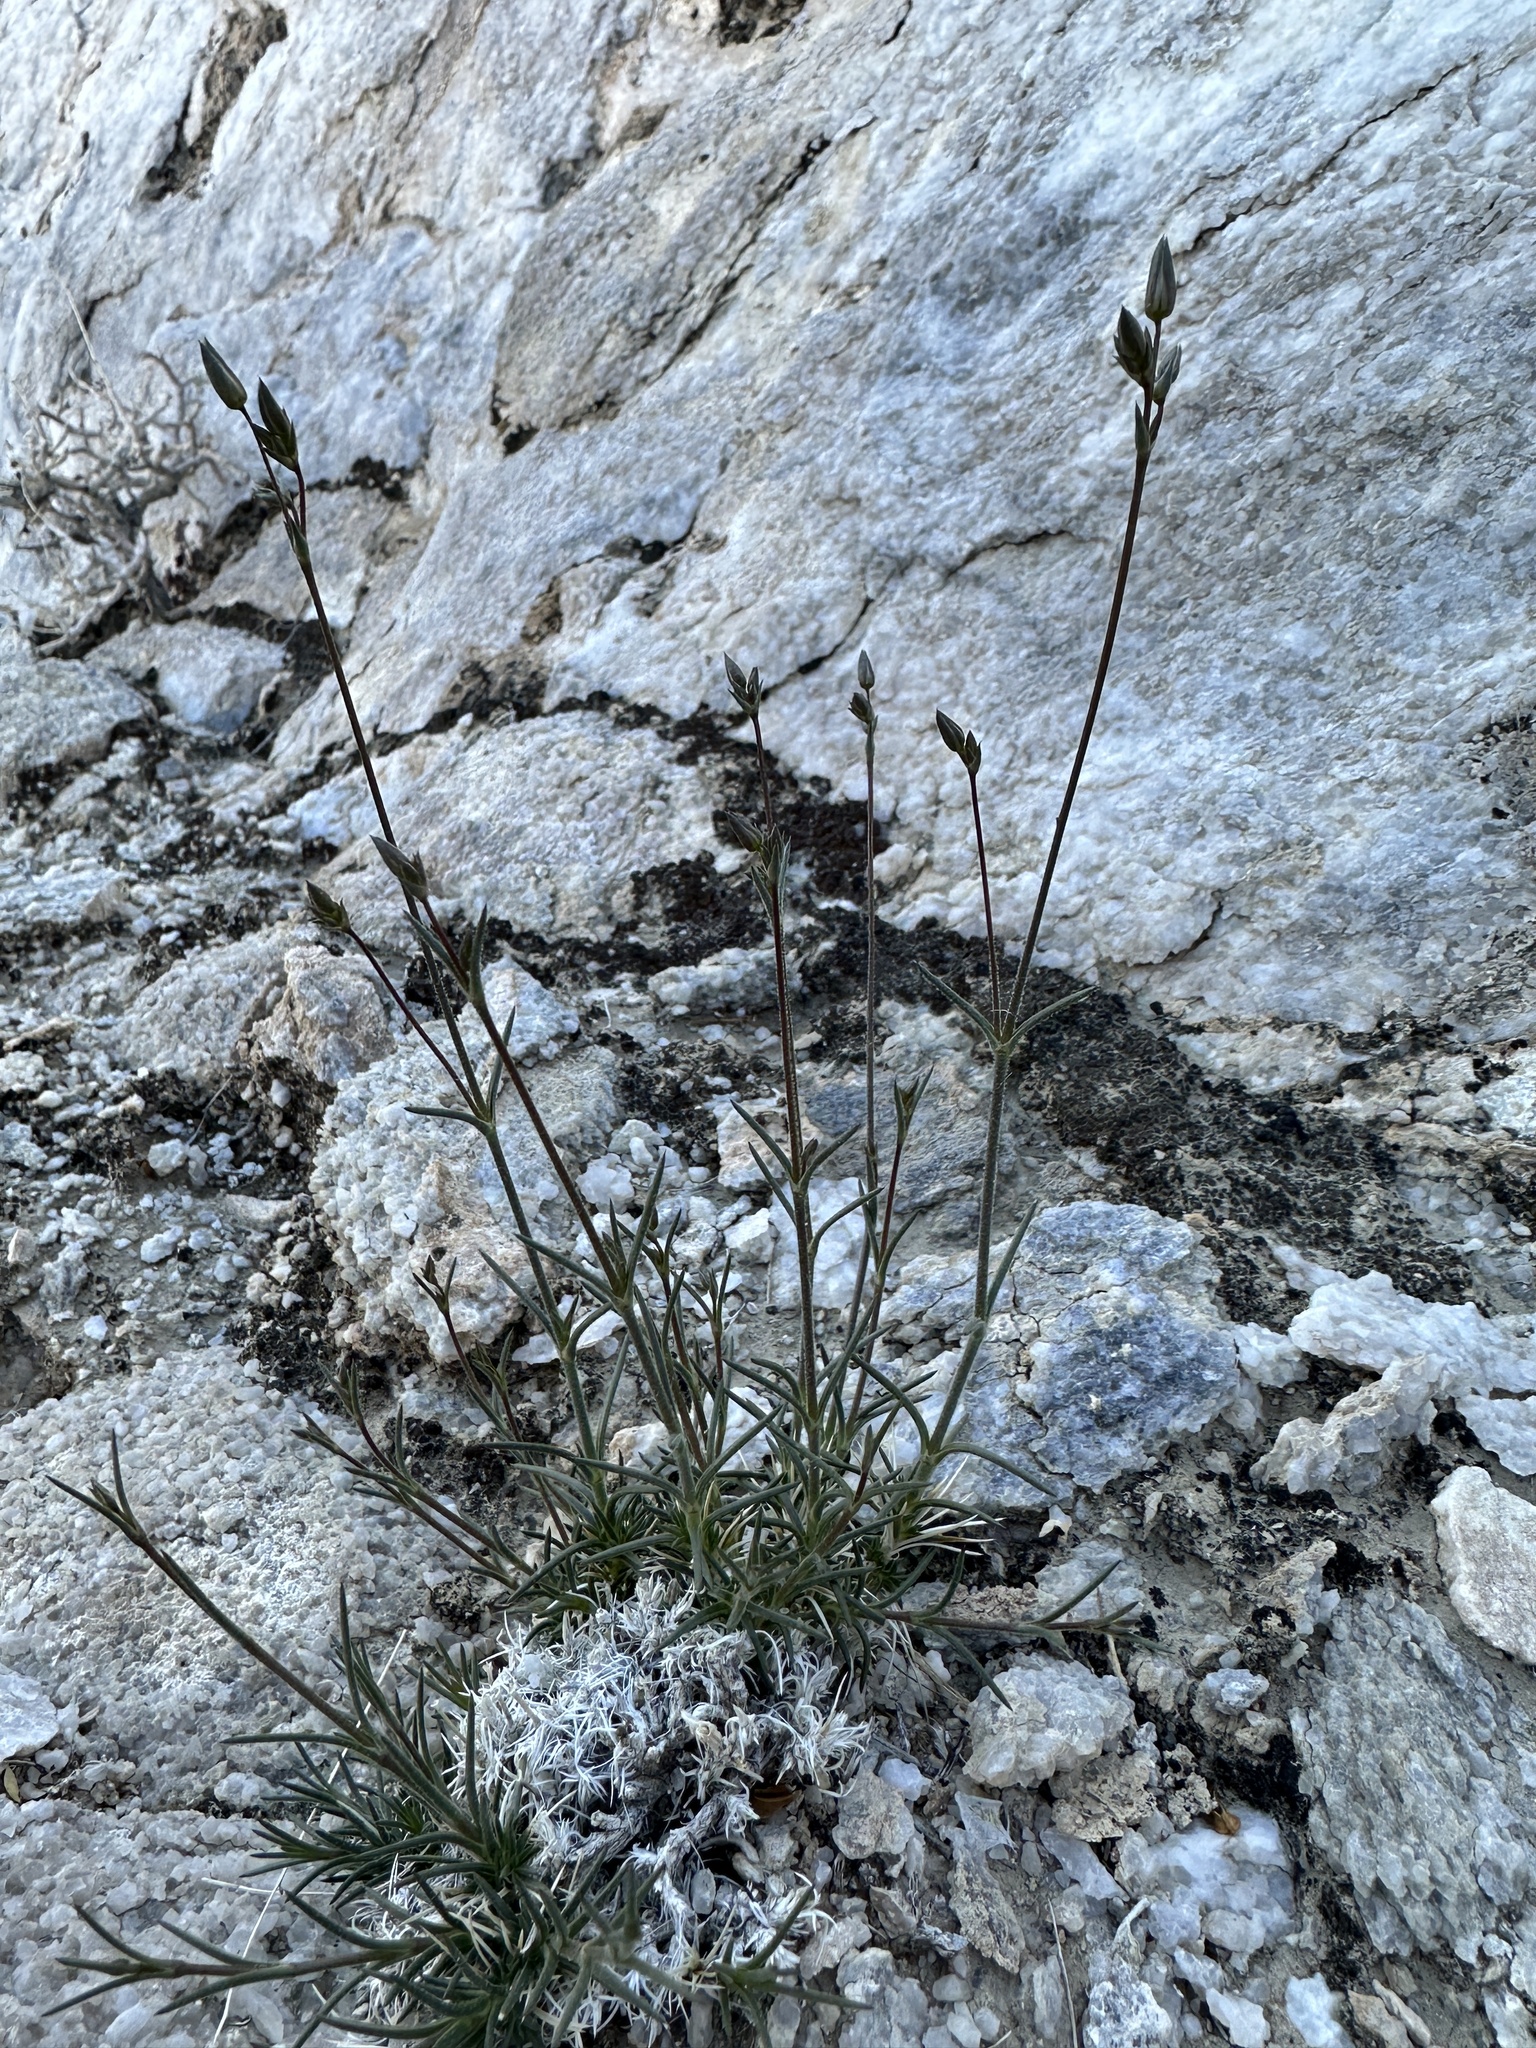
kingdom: Plantae
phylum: Tracheophyta
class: Magnoliopsida
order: Caryophyllales
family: Caryophyllaceae
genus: Eremogone
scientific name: Eremogone macradenia
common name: Mohave sandwort
